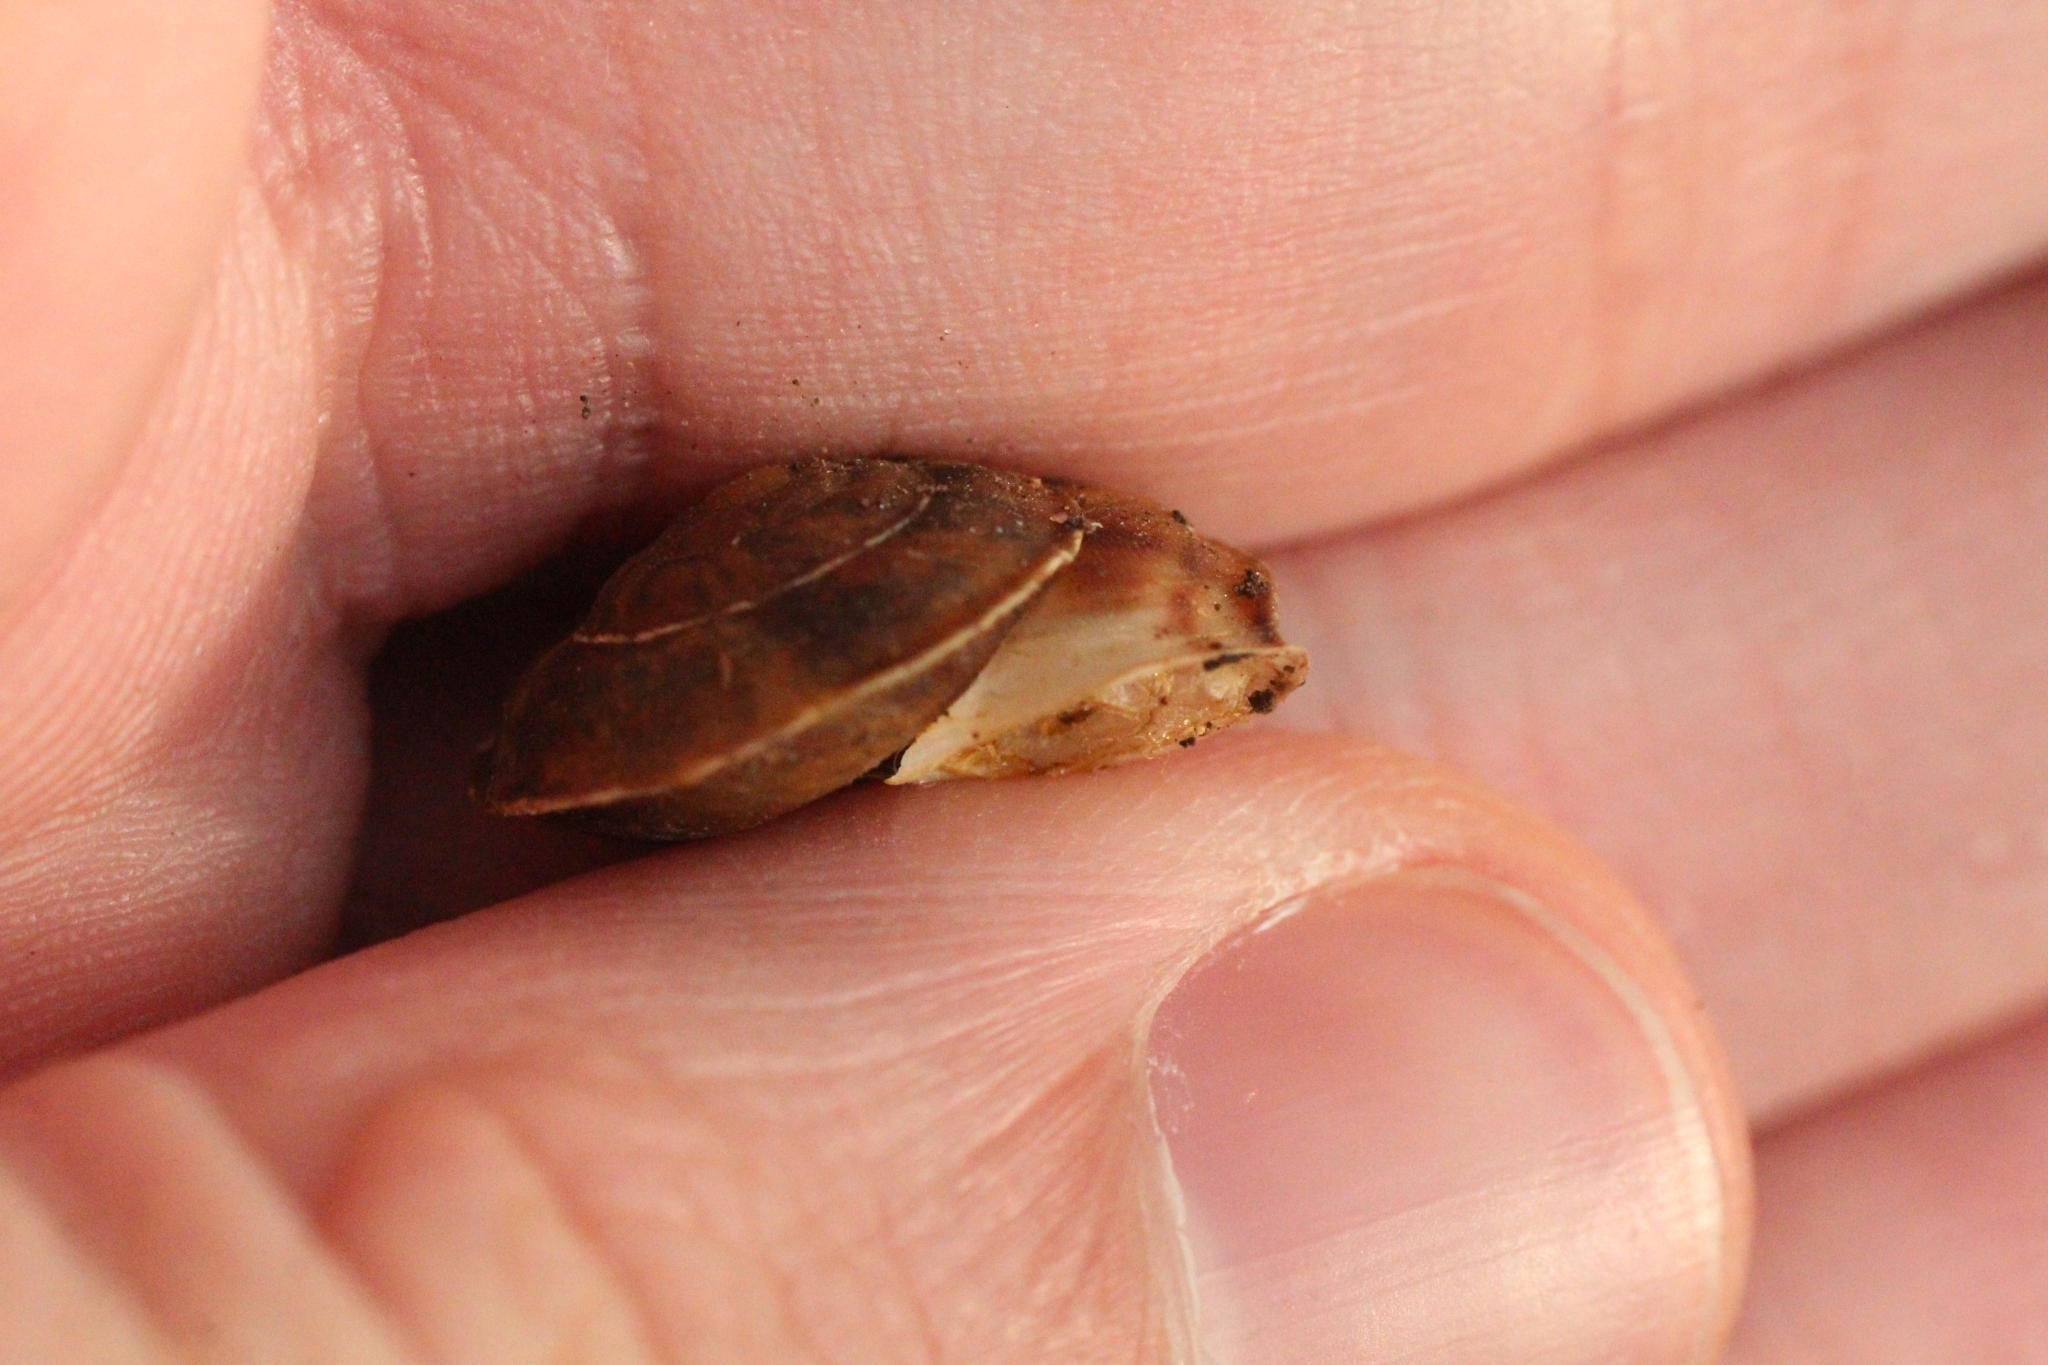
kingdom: Animalia
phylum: Mollusca
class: Gastropoda
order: Stylommatophora
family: Helicidae
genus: Helicigona
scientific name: Helicigona lapicida
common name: Lapidary snail
